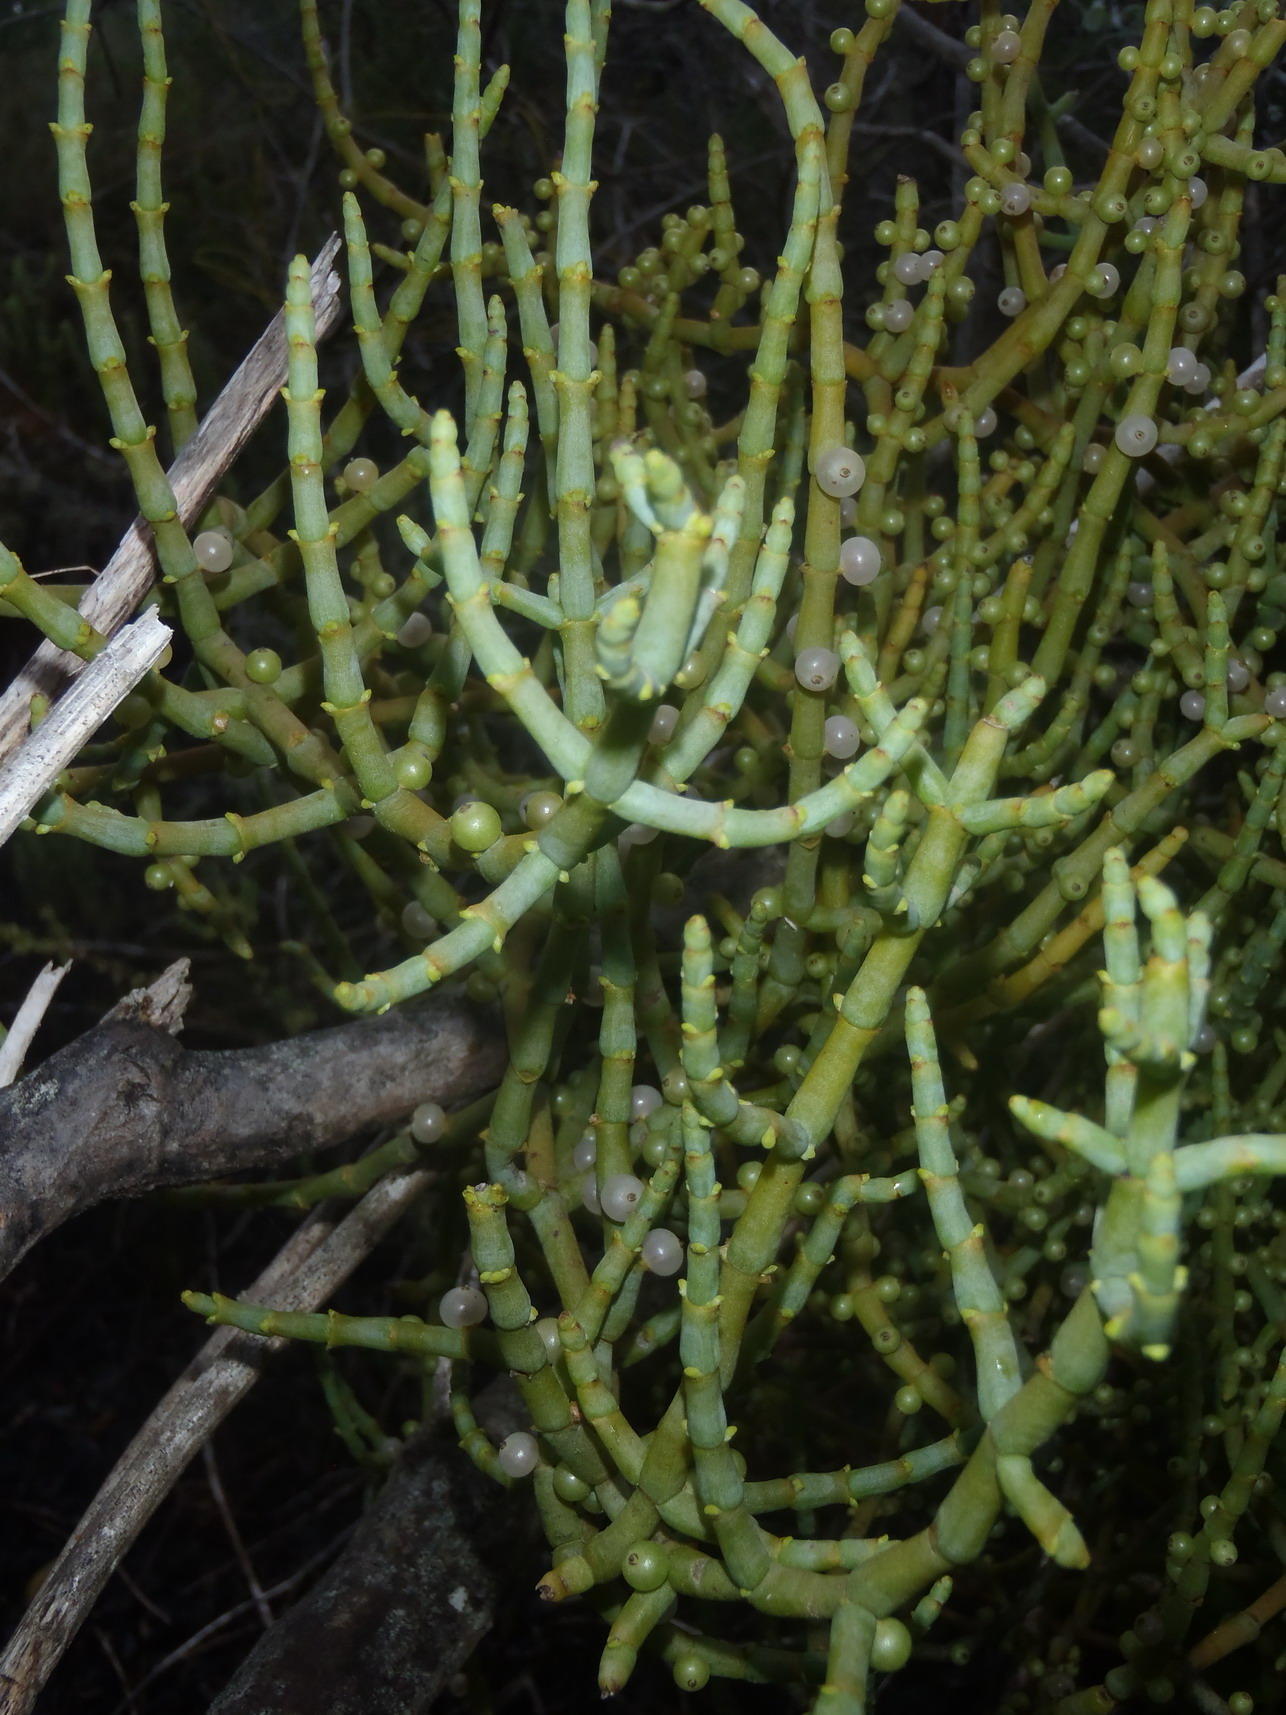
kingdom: Plantae
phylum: Tracheophyta
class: Magnoliopsida
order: Santalales
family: Viscaceae
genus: Viscum
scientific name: Viscum capense
